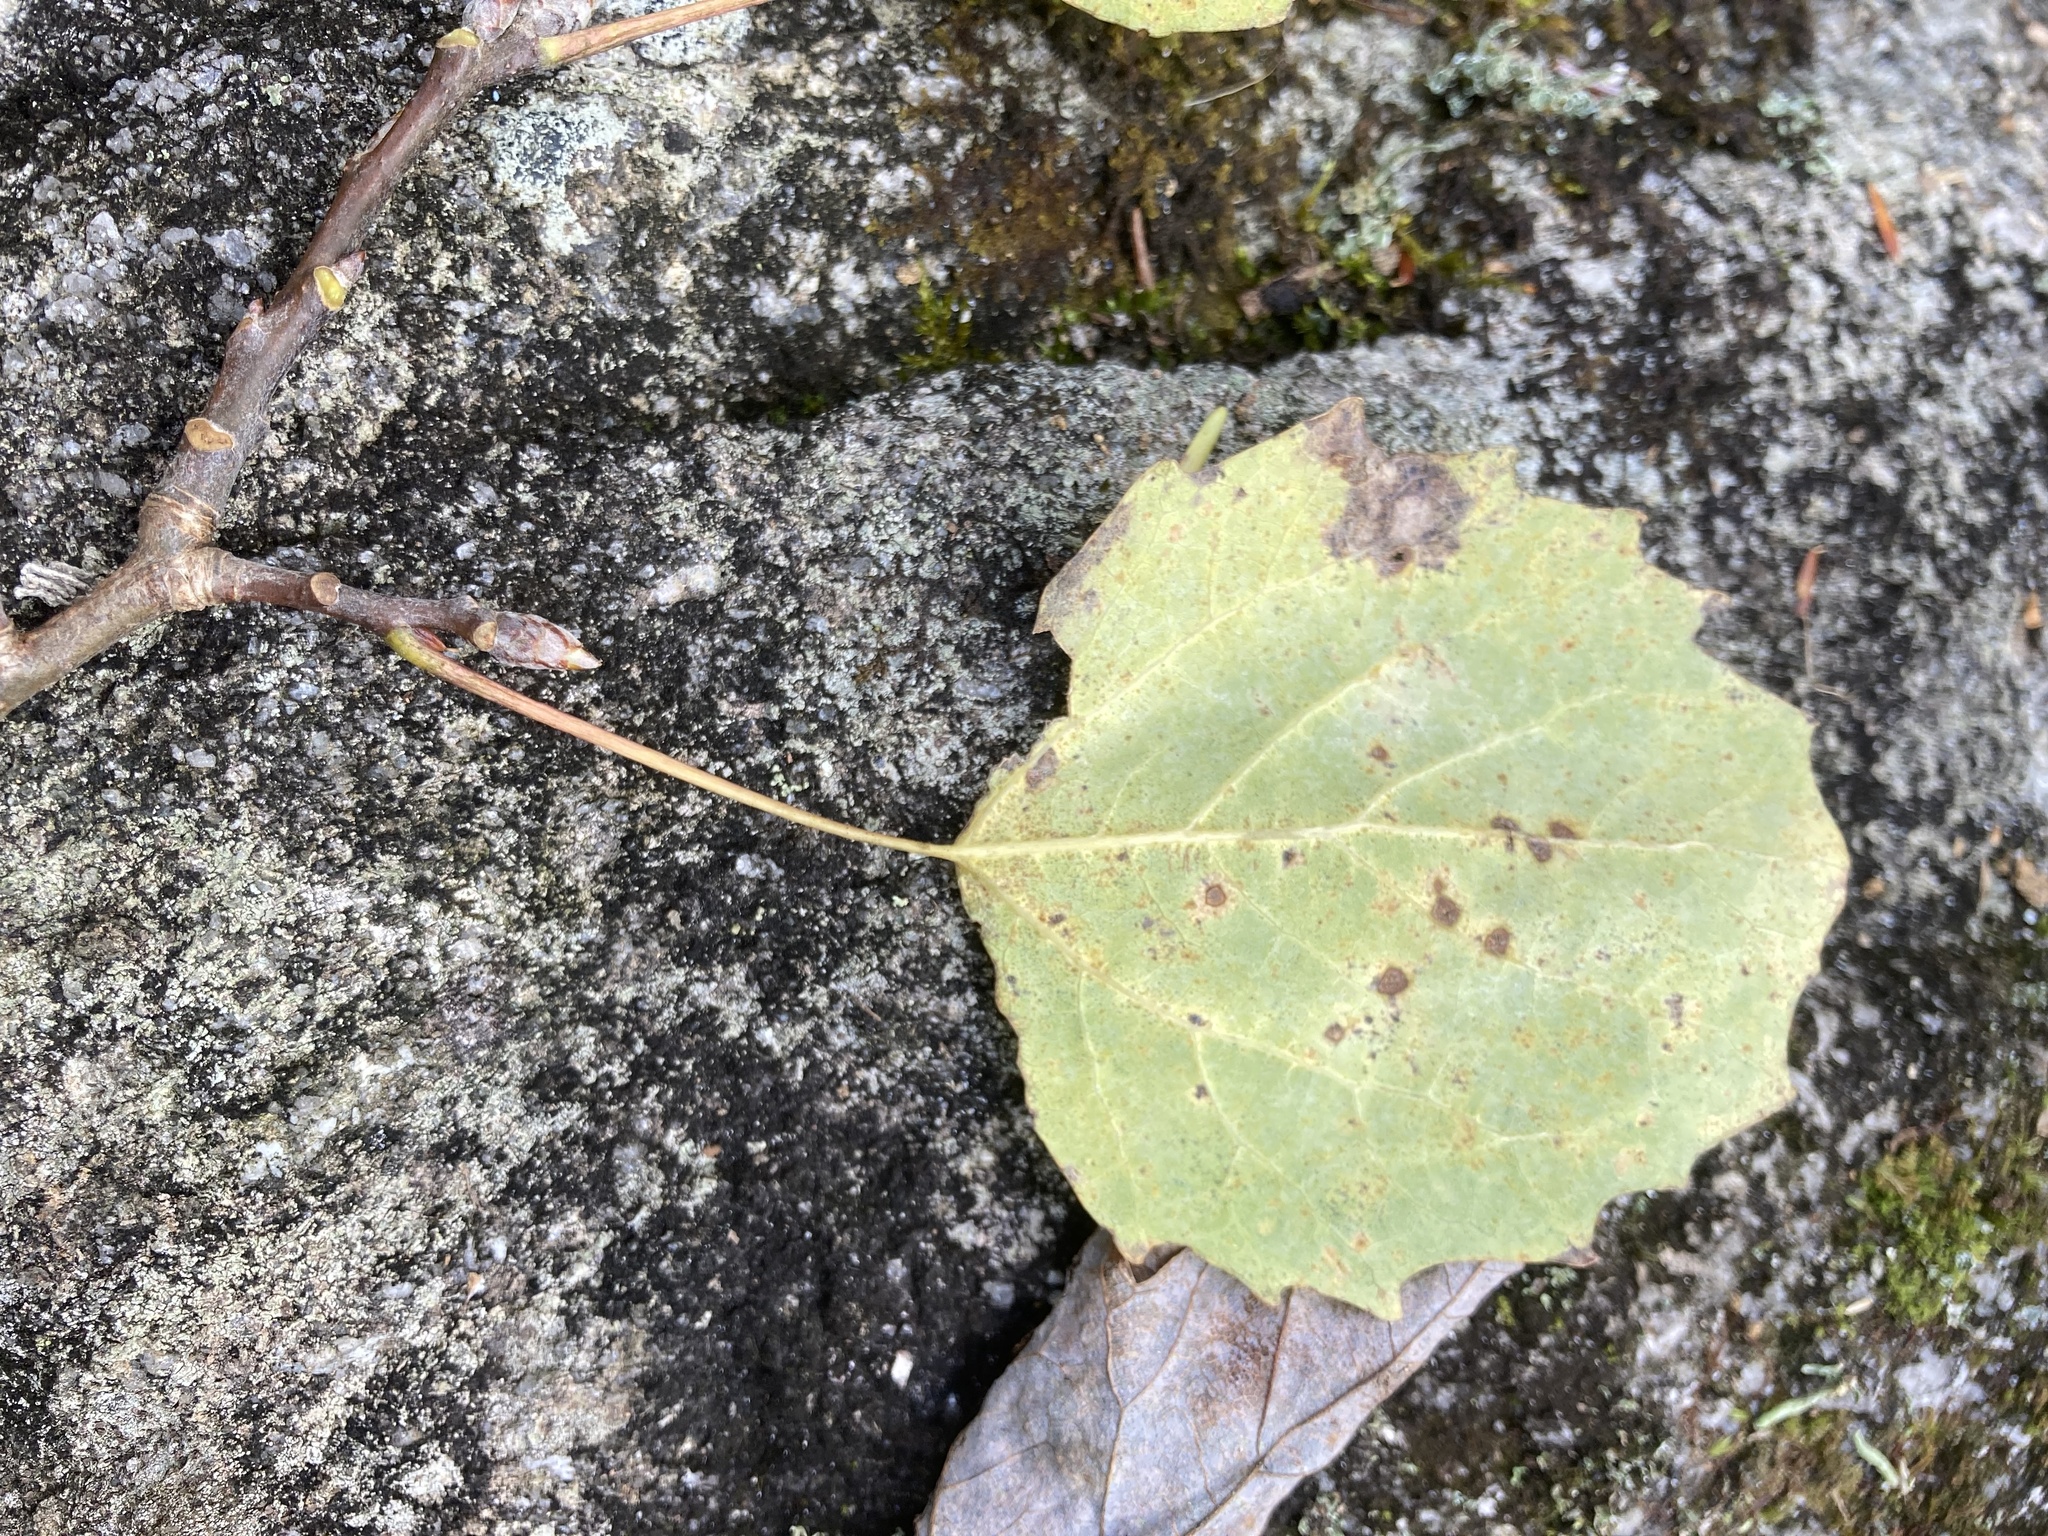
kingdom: Plantae
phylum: Tracheophyta
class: Magnoliopsida
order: Malpighiales
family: Salicaceae
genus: Populus
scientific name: Populus grandidentata
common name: Bigtooth aspen
